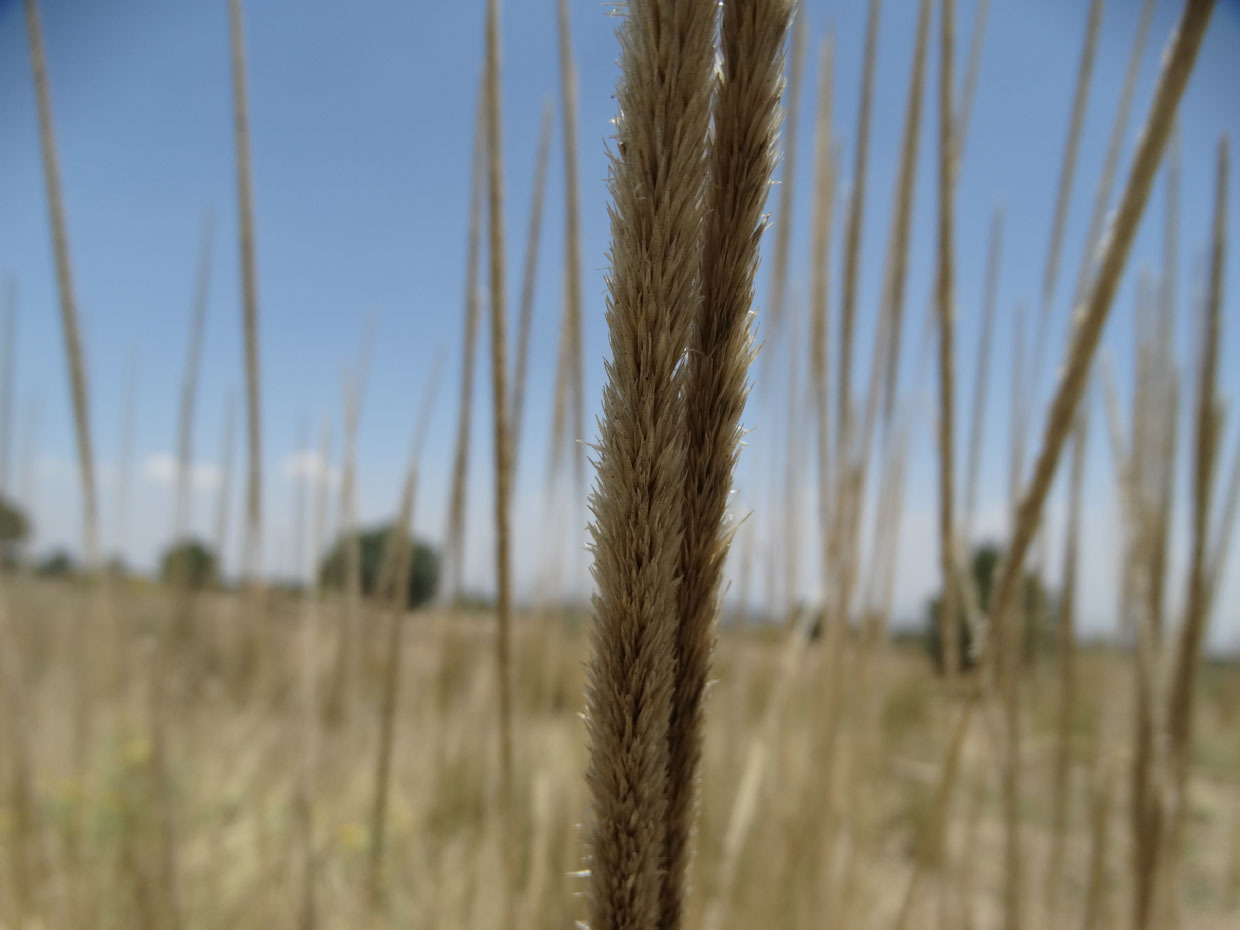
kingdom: Plantae
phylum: Tracheophyta
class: Liliopsida
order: Poales
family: Poaceae
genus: Muhlenbergia
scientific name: Muhlenbergia macroura
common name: Mexican broomroot
